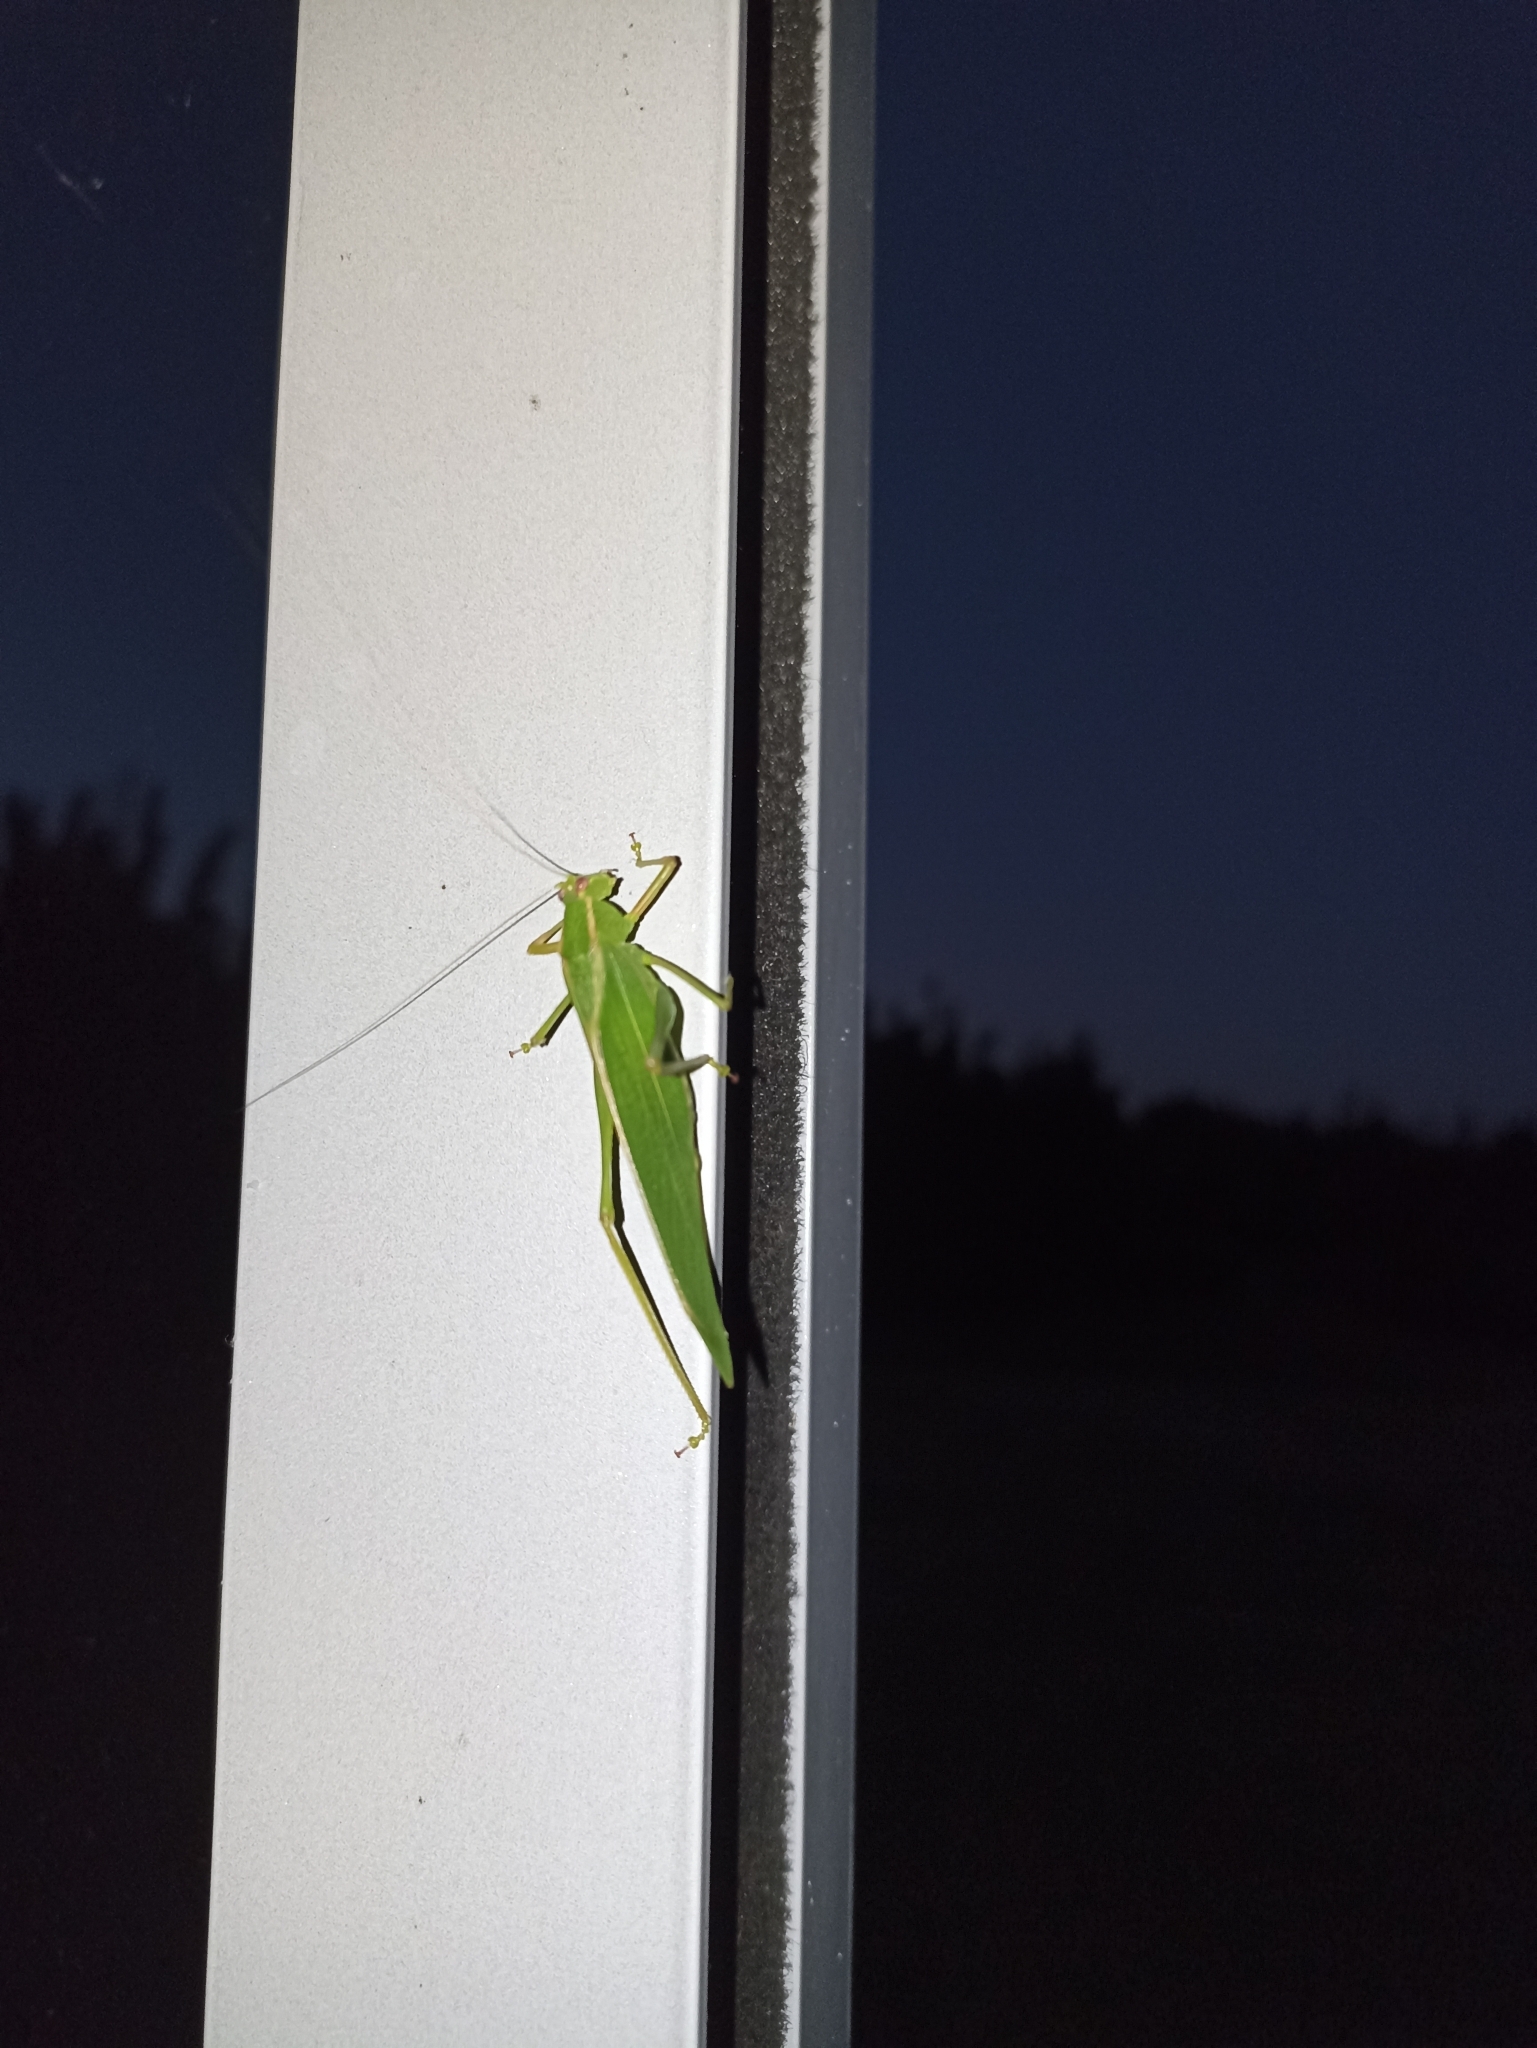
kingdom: Animalia
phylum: Arthropoda
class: Insecta
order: Orthoptera
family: Tettigoniidae
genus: Caedicia
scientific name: Caedicia simplex
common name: Common garden katydid
